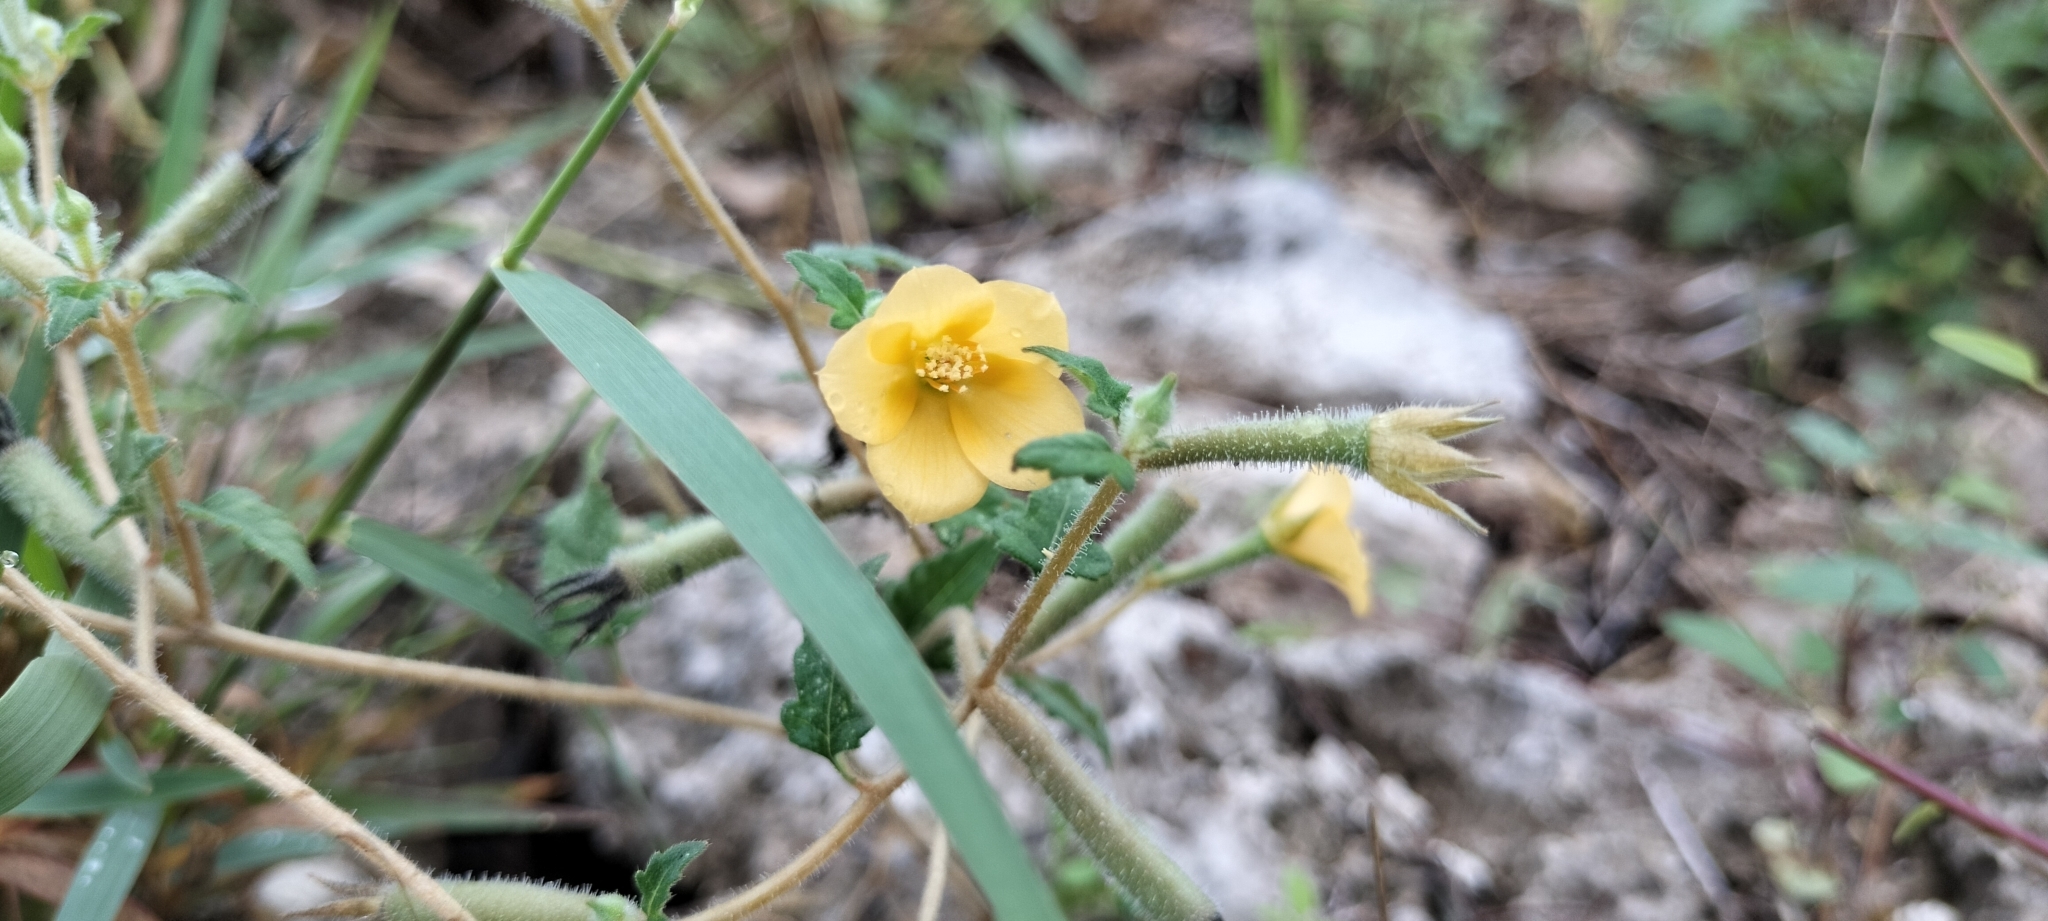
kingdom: Plantae
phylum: Tracheophyta
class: Magnoliopsida
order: Cornales
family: Loasaceae
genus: Mentzelia
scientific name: Mentzelia aspera
